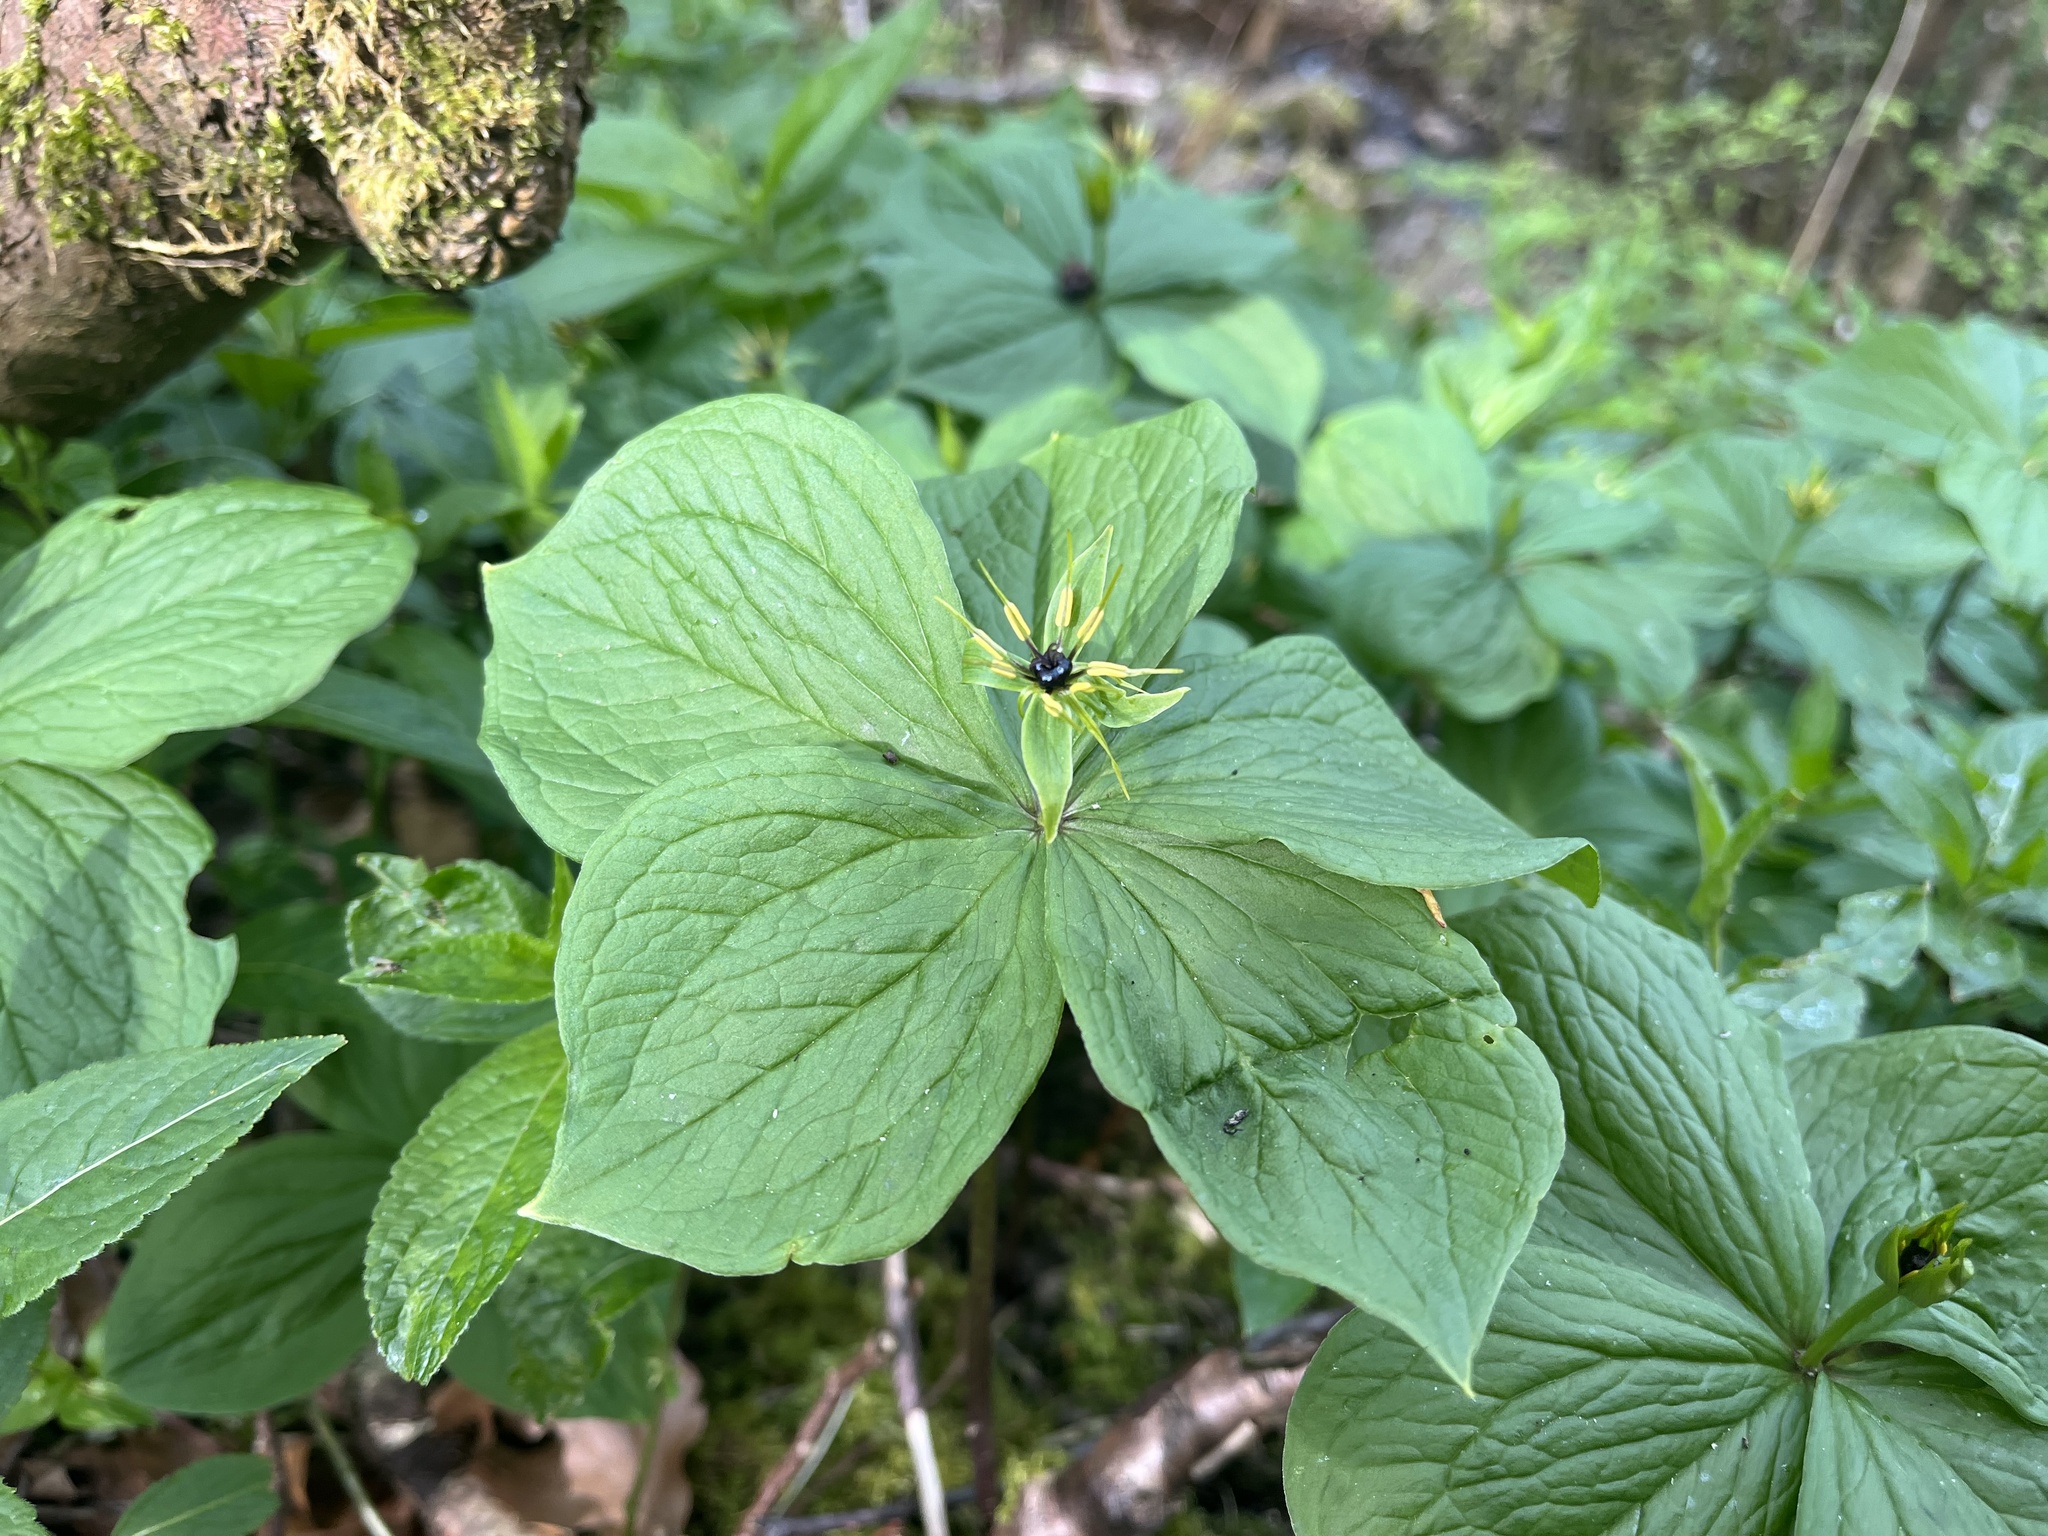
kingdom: Plantae
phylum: Tracheophyta
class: Liliopsida
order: Liliales
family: Melanthiaceae
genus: Paris
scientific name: Paris quadrifolia
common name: Herb-paris
